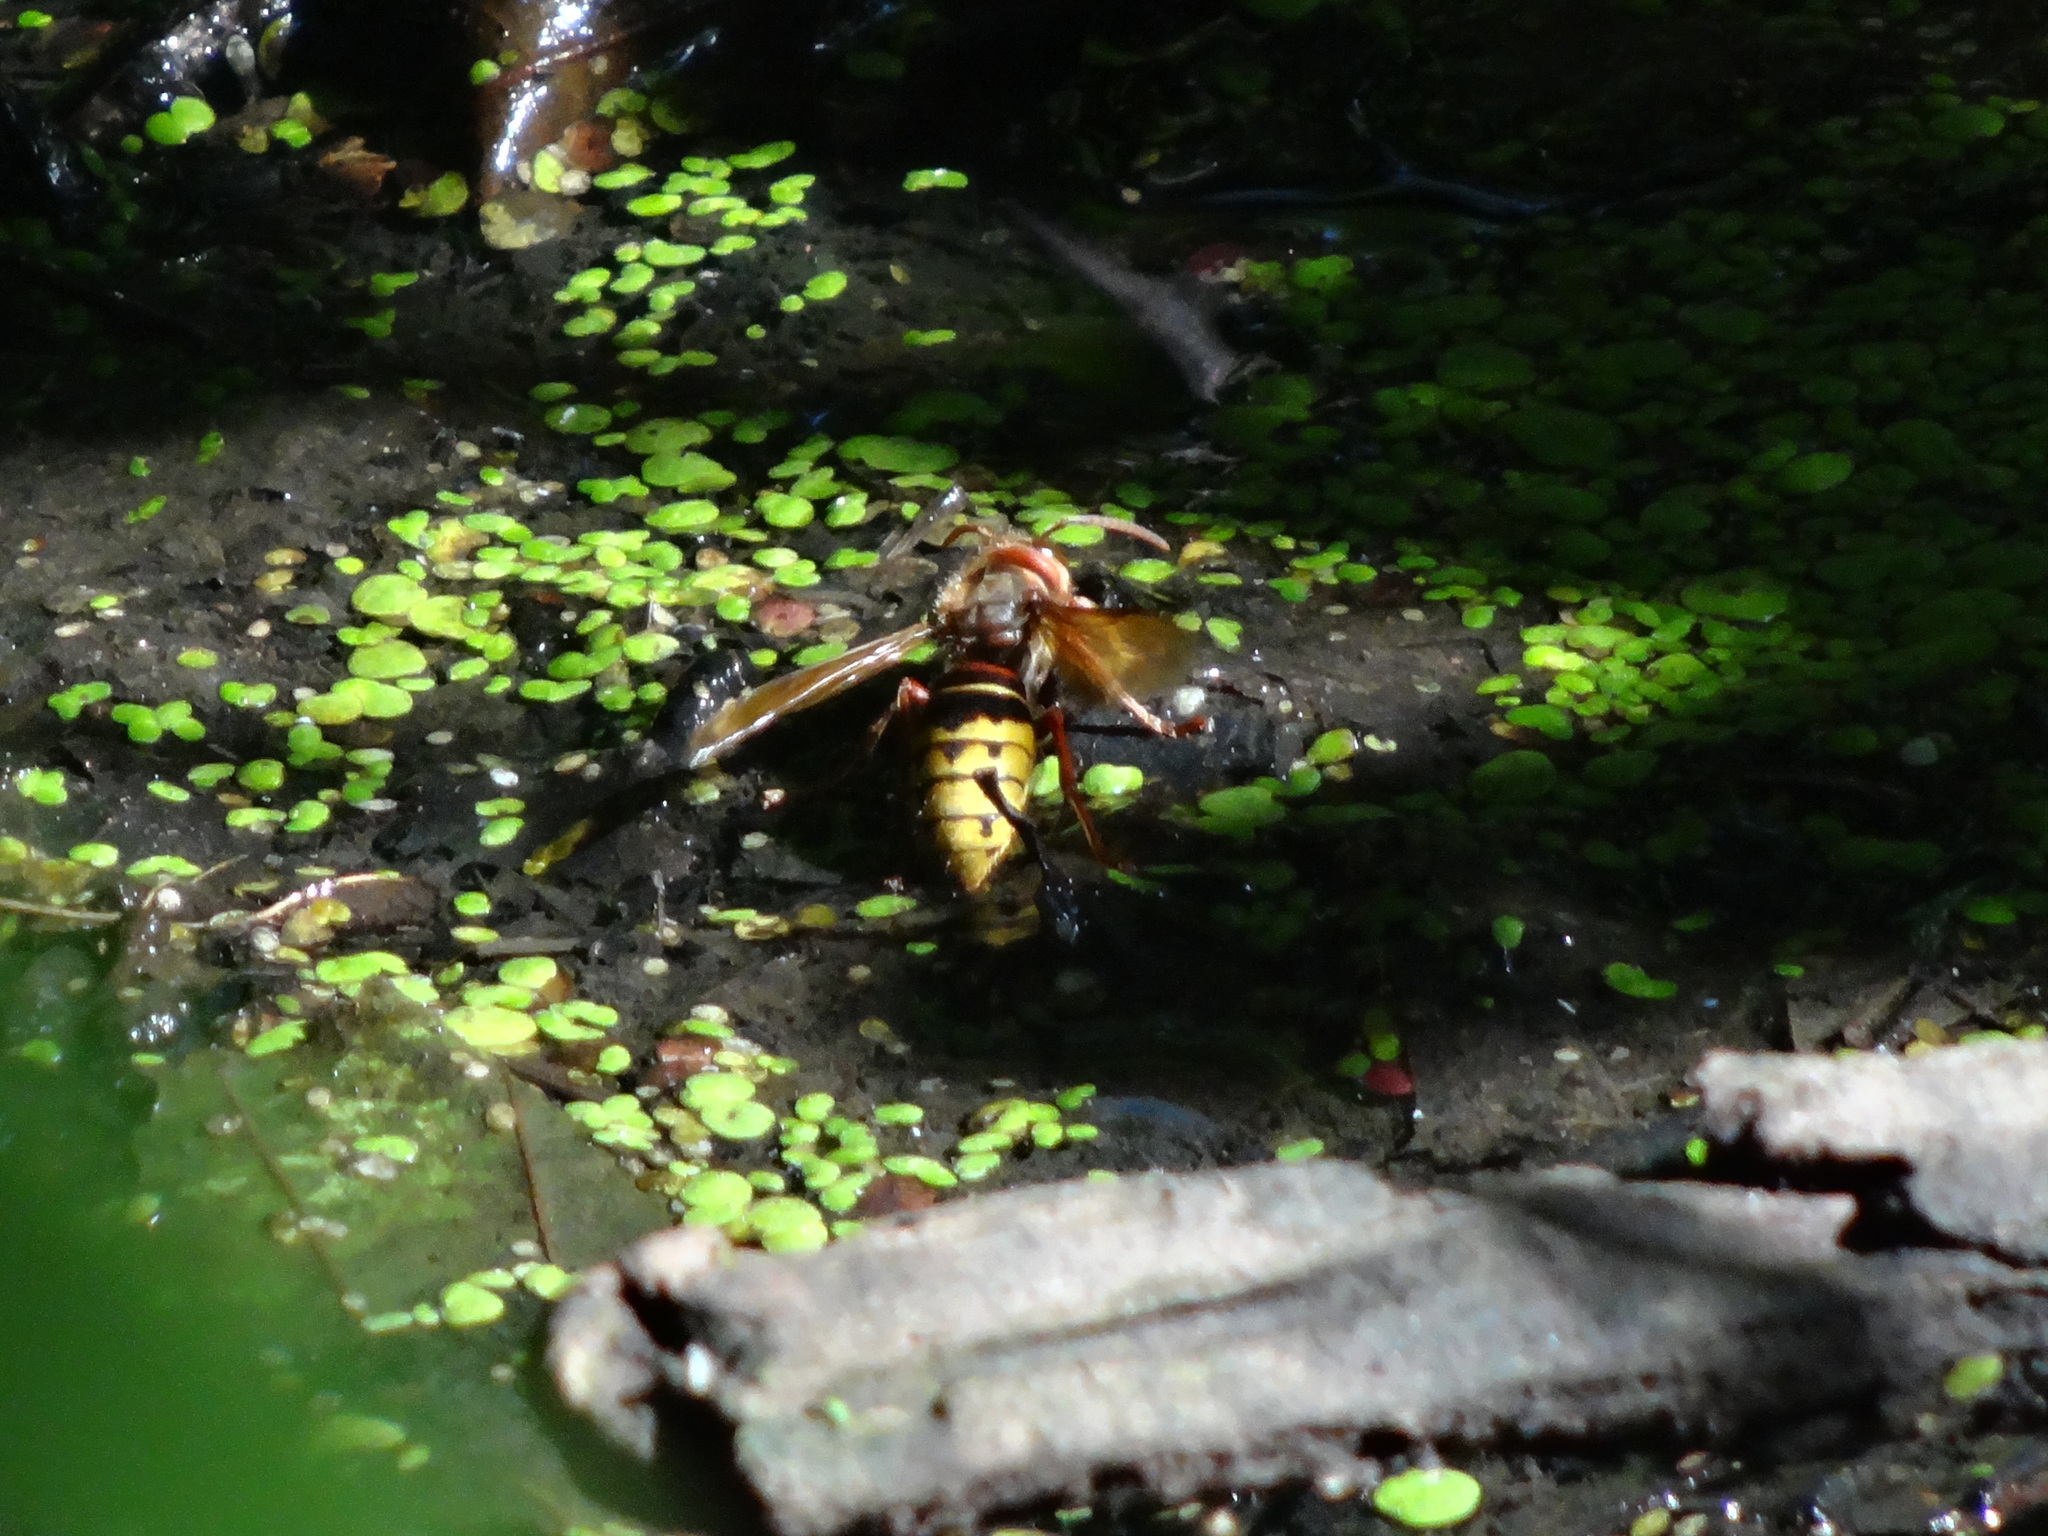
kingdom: Animalia
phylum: Arthropoda
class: Insecta
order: Hymenoptera
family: Vespidae
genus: Vespa
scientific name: Vespa crabro
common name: Hornet
